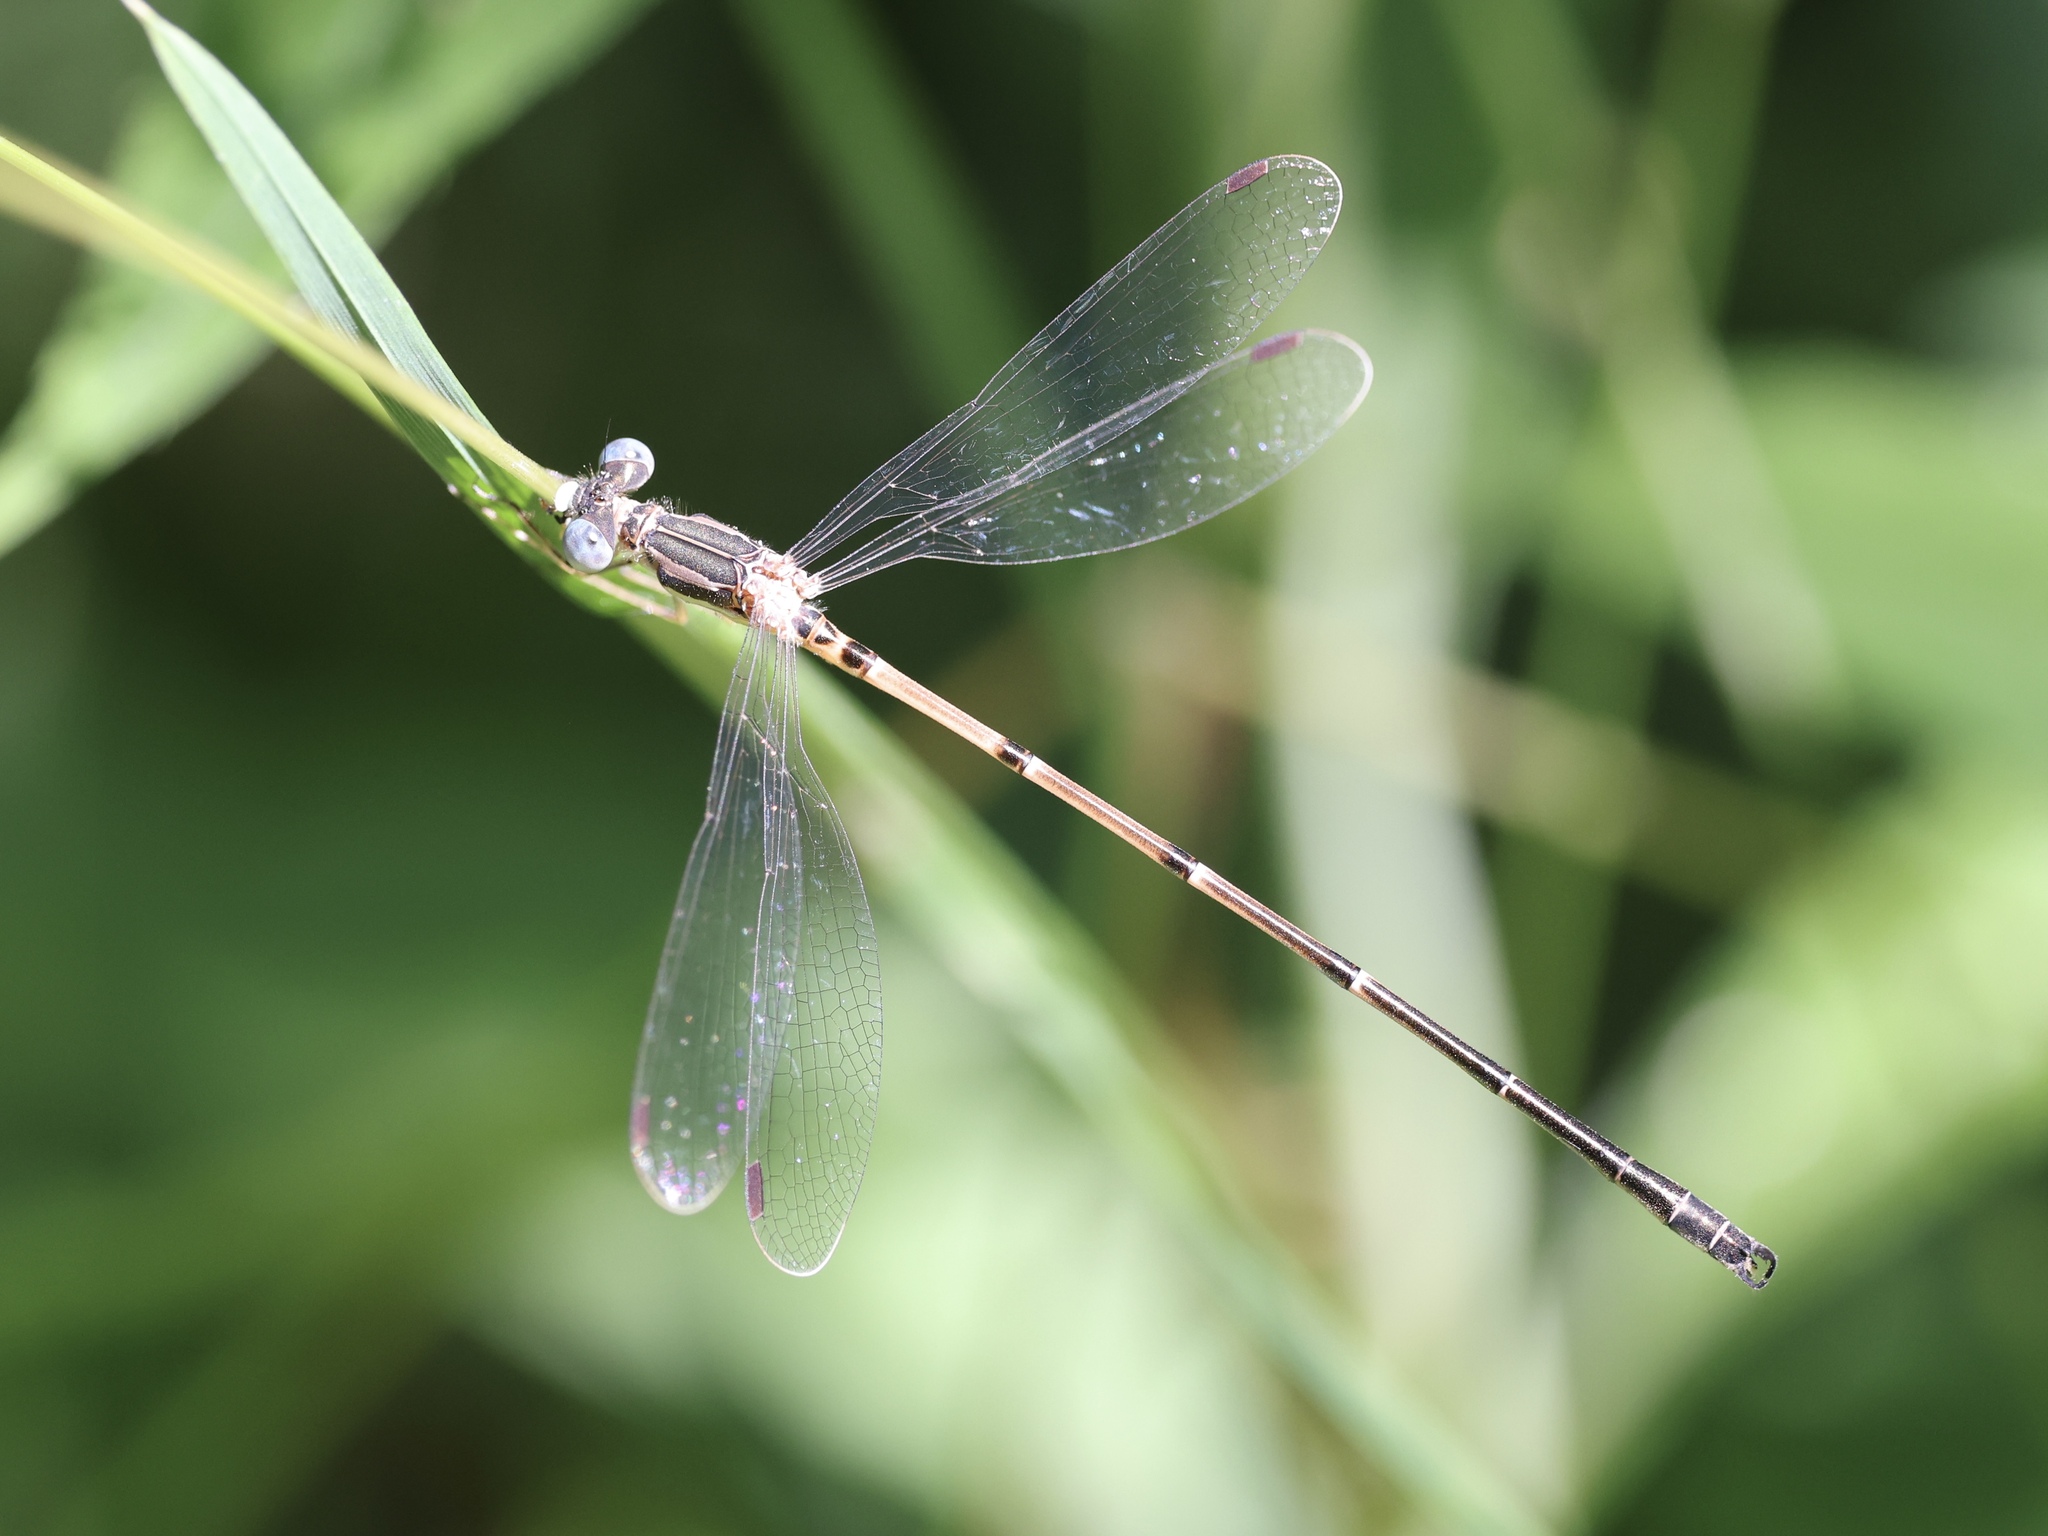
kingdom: Animalia
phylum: Arthropoda
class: Insecta
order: Odonata
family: Lestidae
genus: Lestes
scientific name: Lestes rectangularis
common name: Slender spreadwing
